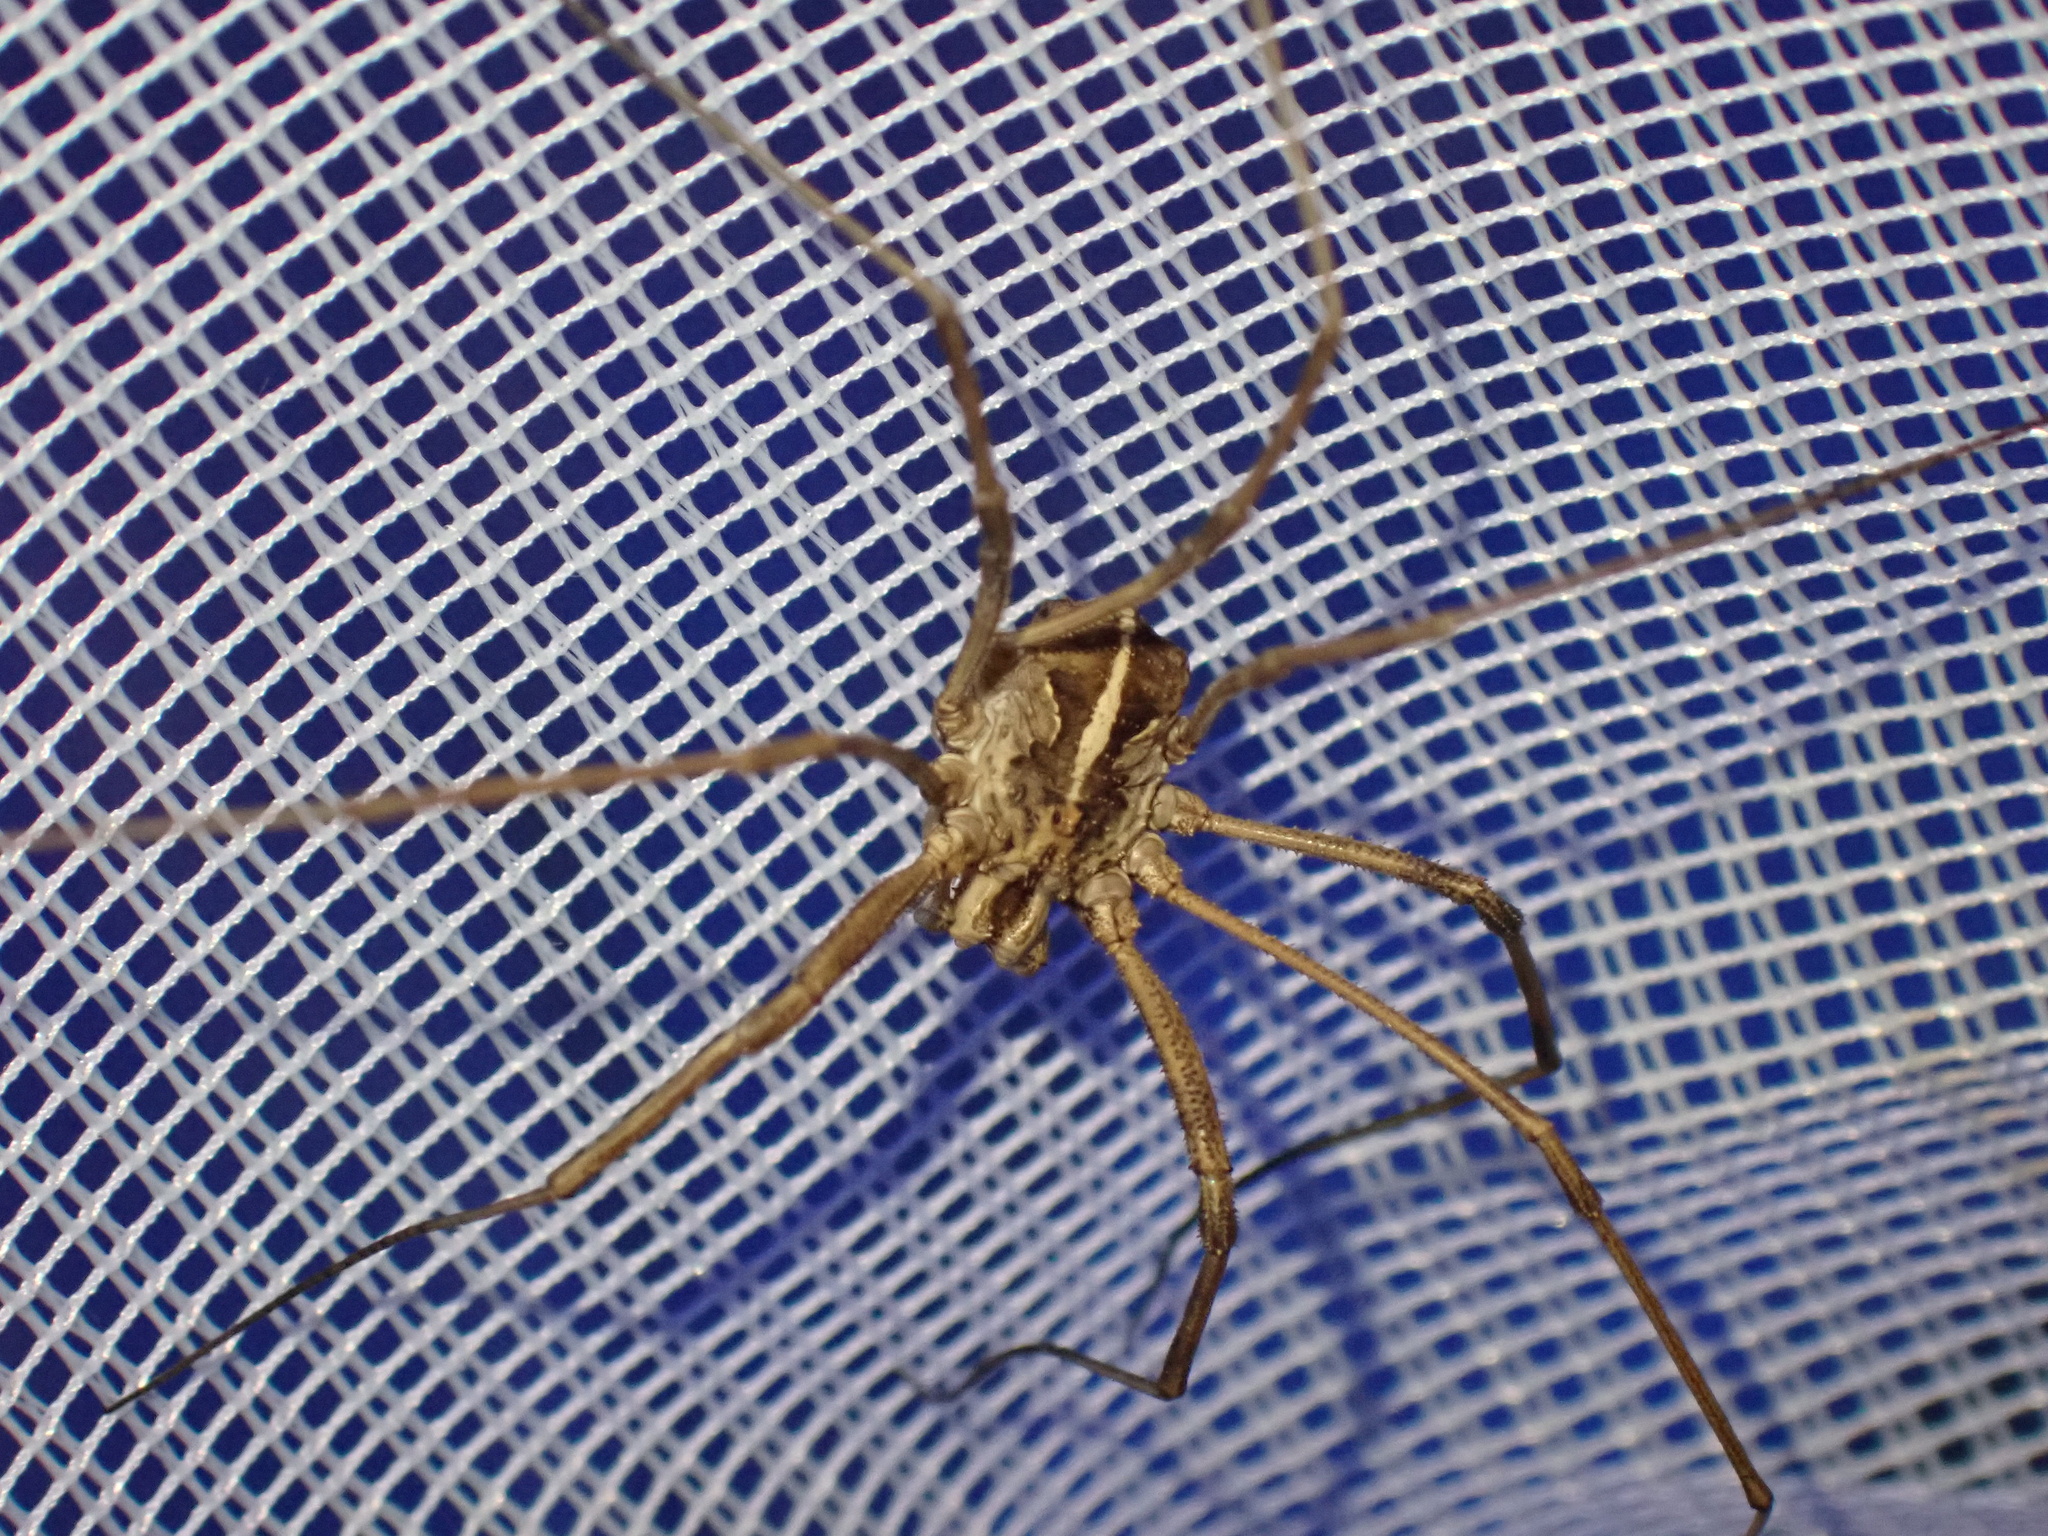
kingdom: Animalia
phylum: Arthropoda
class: Arachnida
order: Opiliones
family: Phalangiidae
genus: Metaphalangium
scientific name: Metaphalangium cirtanum
